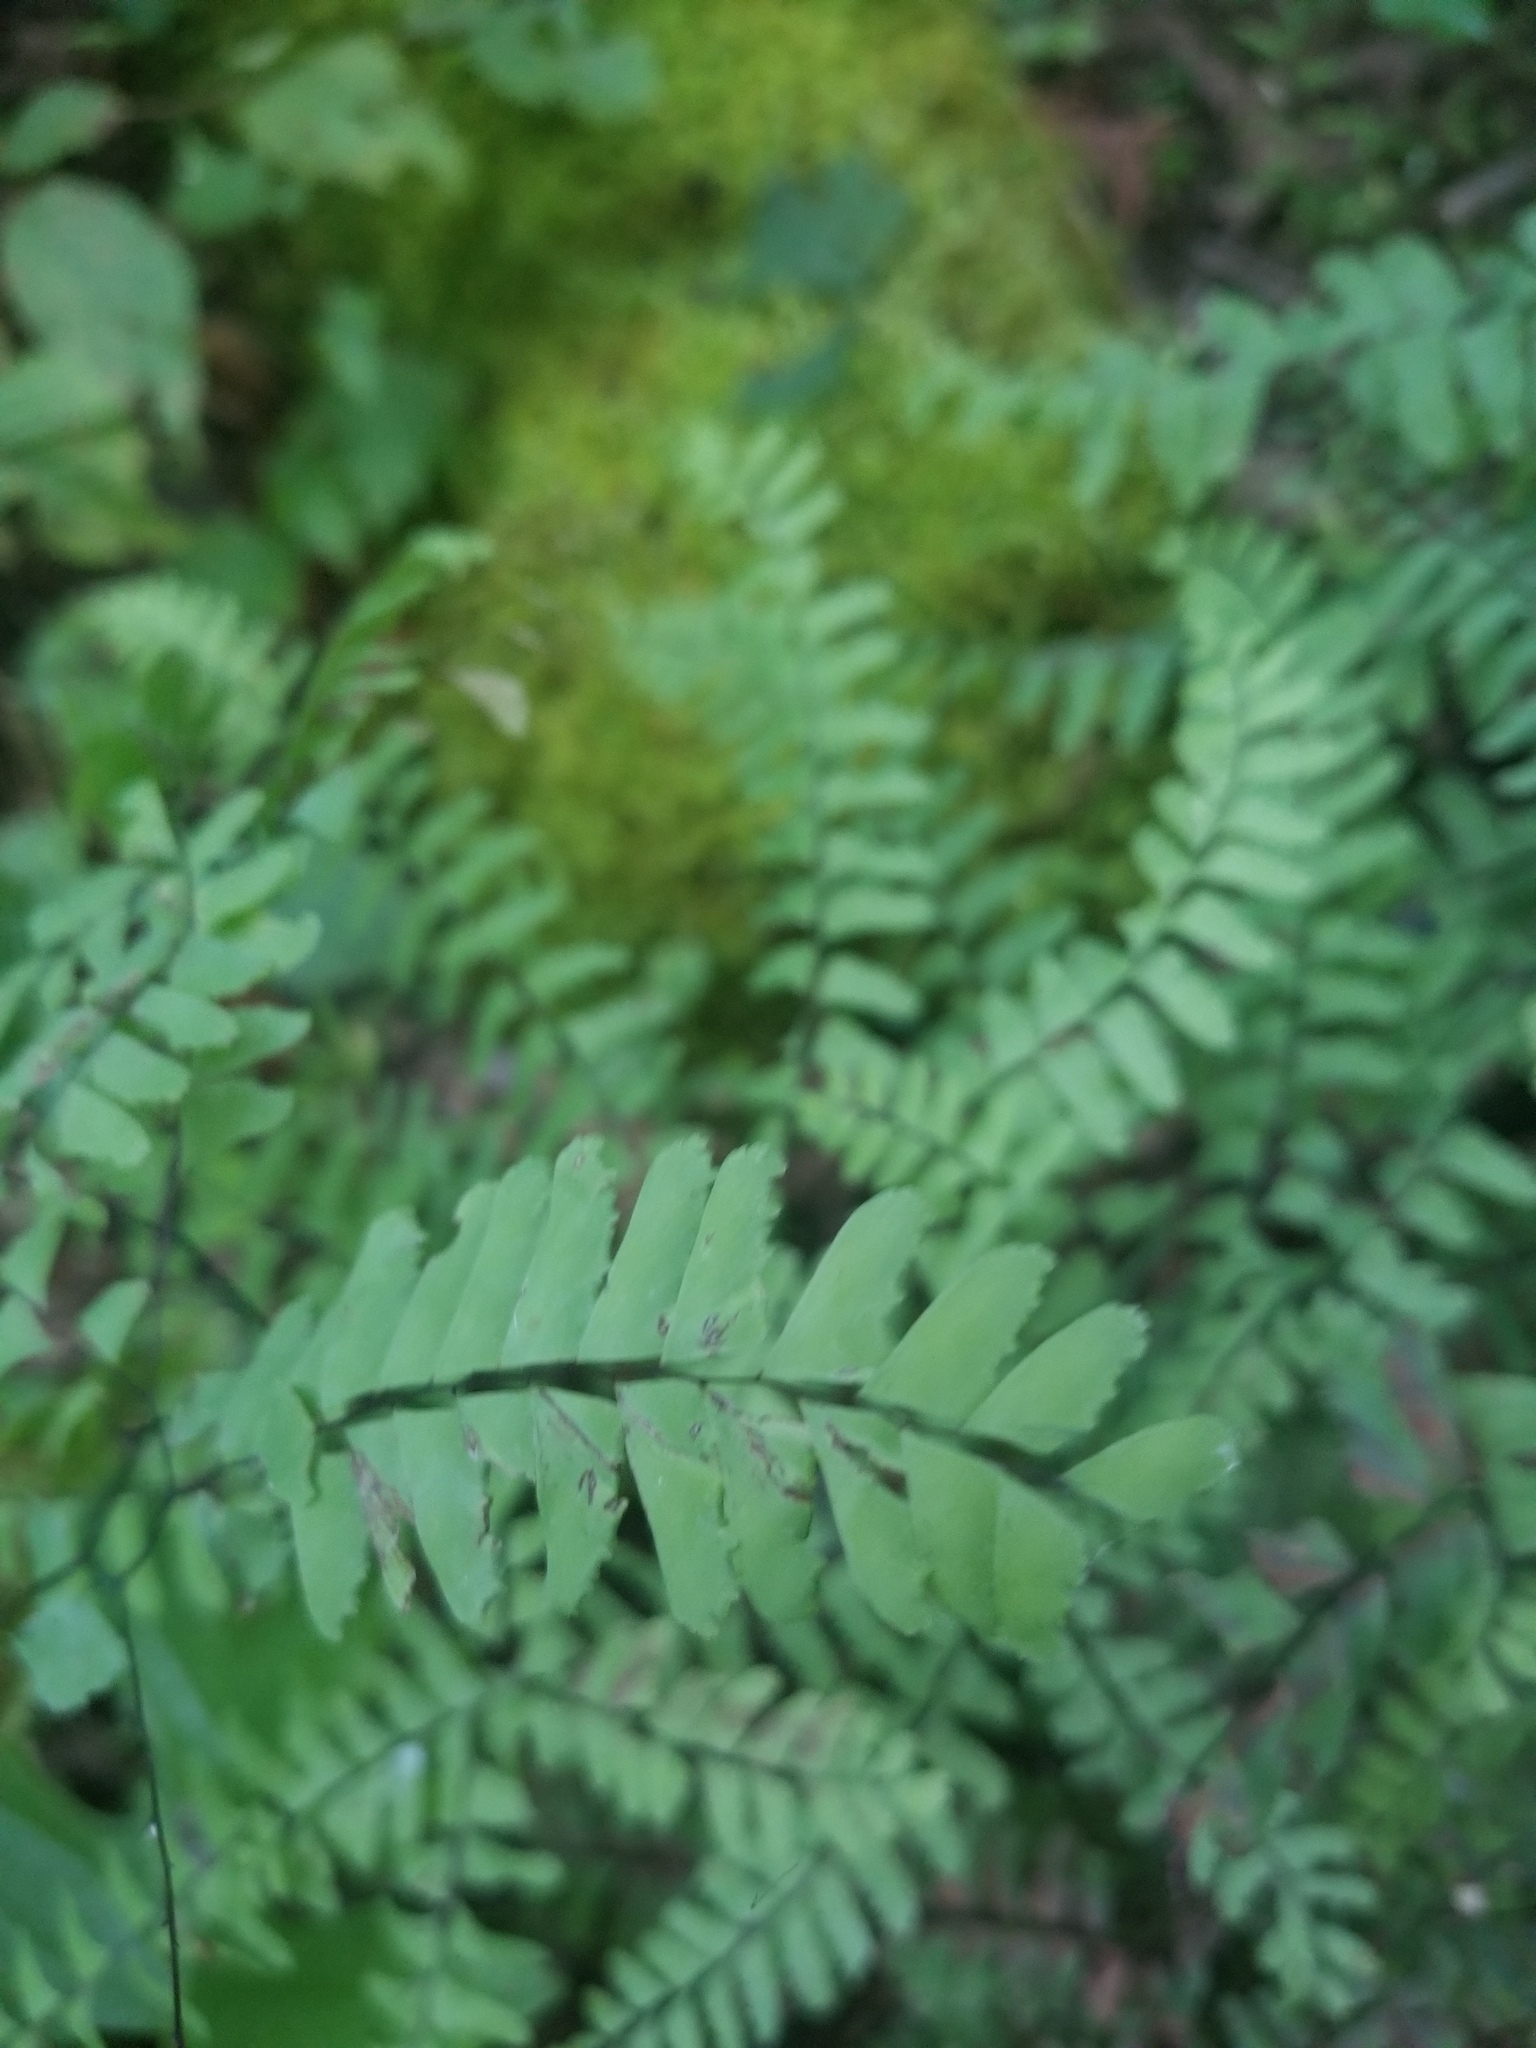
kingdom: Plantae
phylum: Tracheophyta
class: Polypodiopsida
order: Polypodiales
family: Pteridaceae
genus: Adiantum
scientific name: Adiantum pedatum
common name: Five-finger fern
